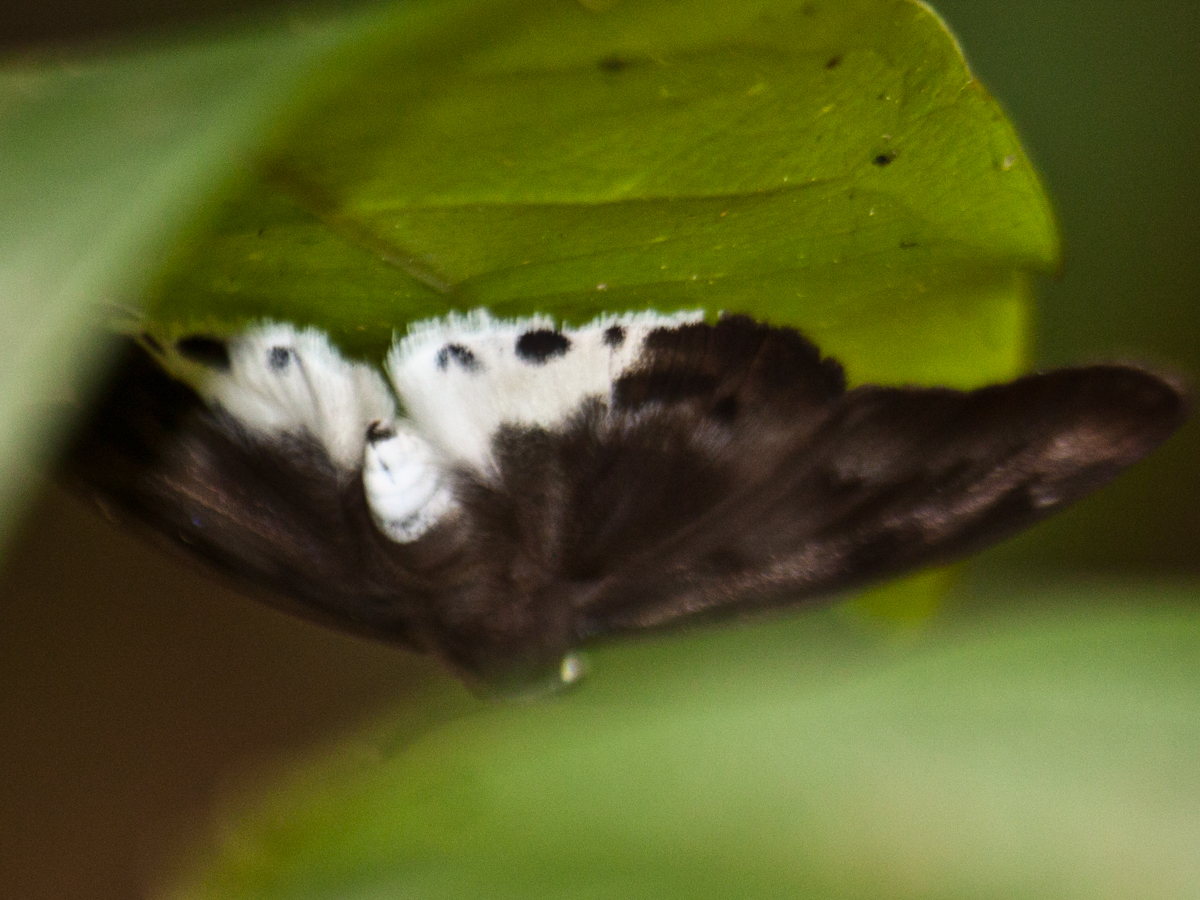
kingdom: Animalia
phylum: Arthropoda
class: Insecta
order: Lepidoptera
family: Hesperiidae
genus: Tagiades
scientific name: Tagiades parra
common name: Straight snow flat
